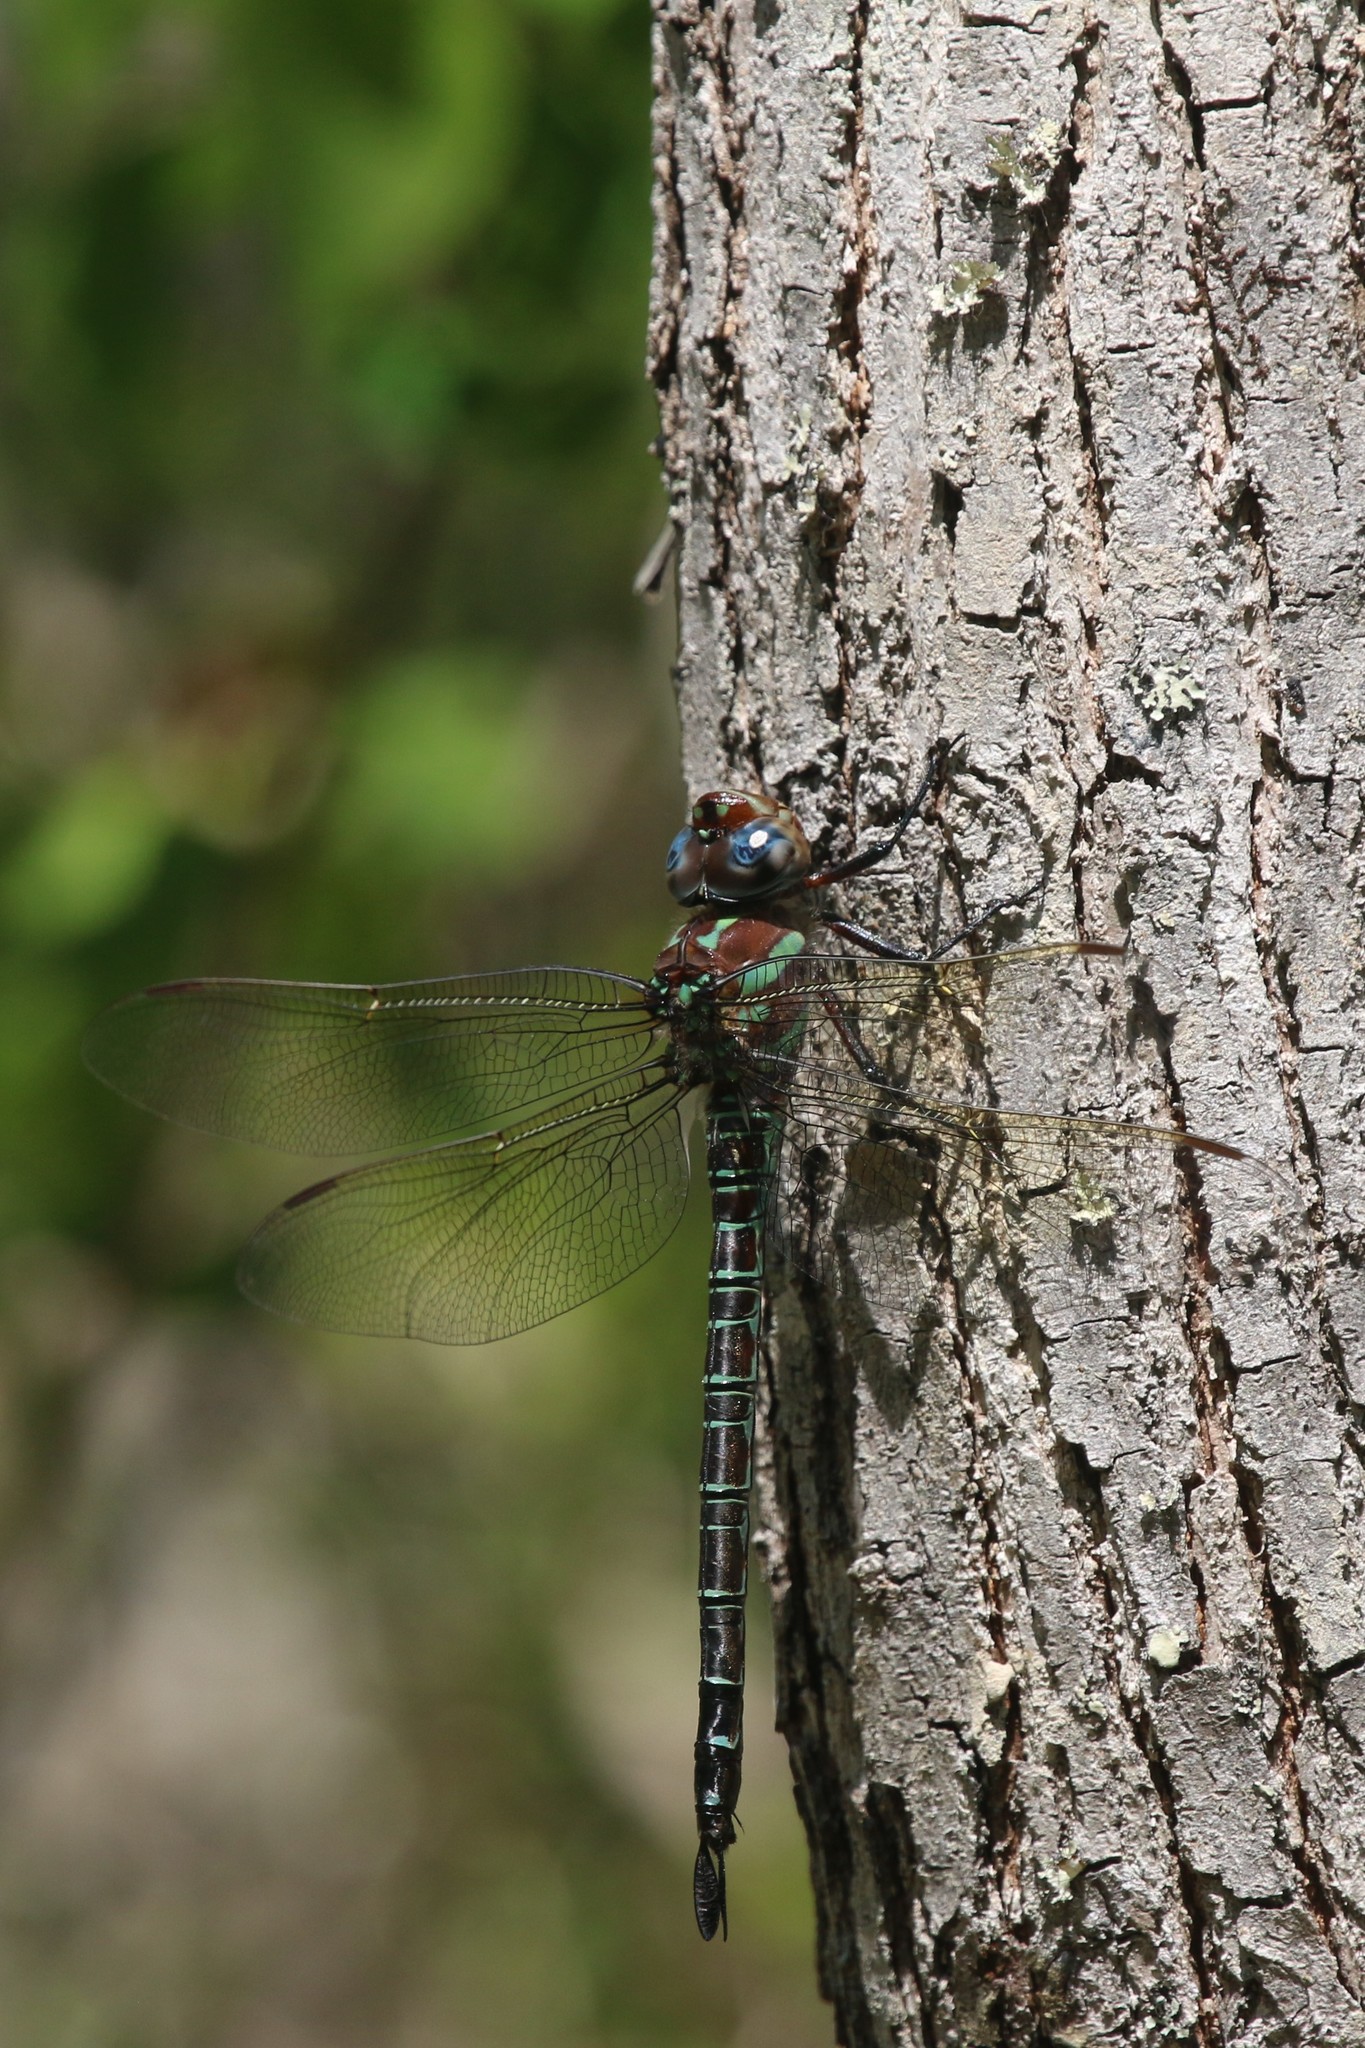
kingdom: Animalia
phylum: Arthropoda
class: Insecta
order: Odonata
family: Aeshnidae
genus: Epiaeschna
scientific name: Epiaeschna heros
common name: Swamp darner
